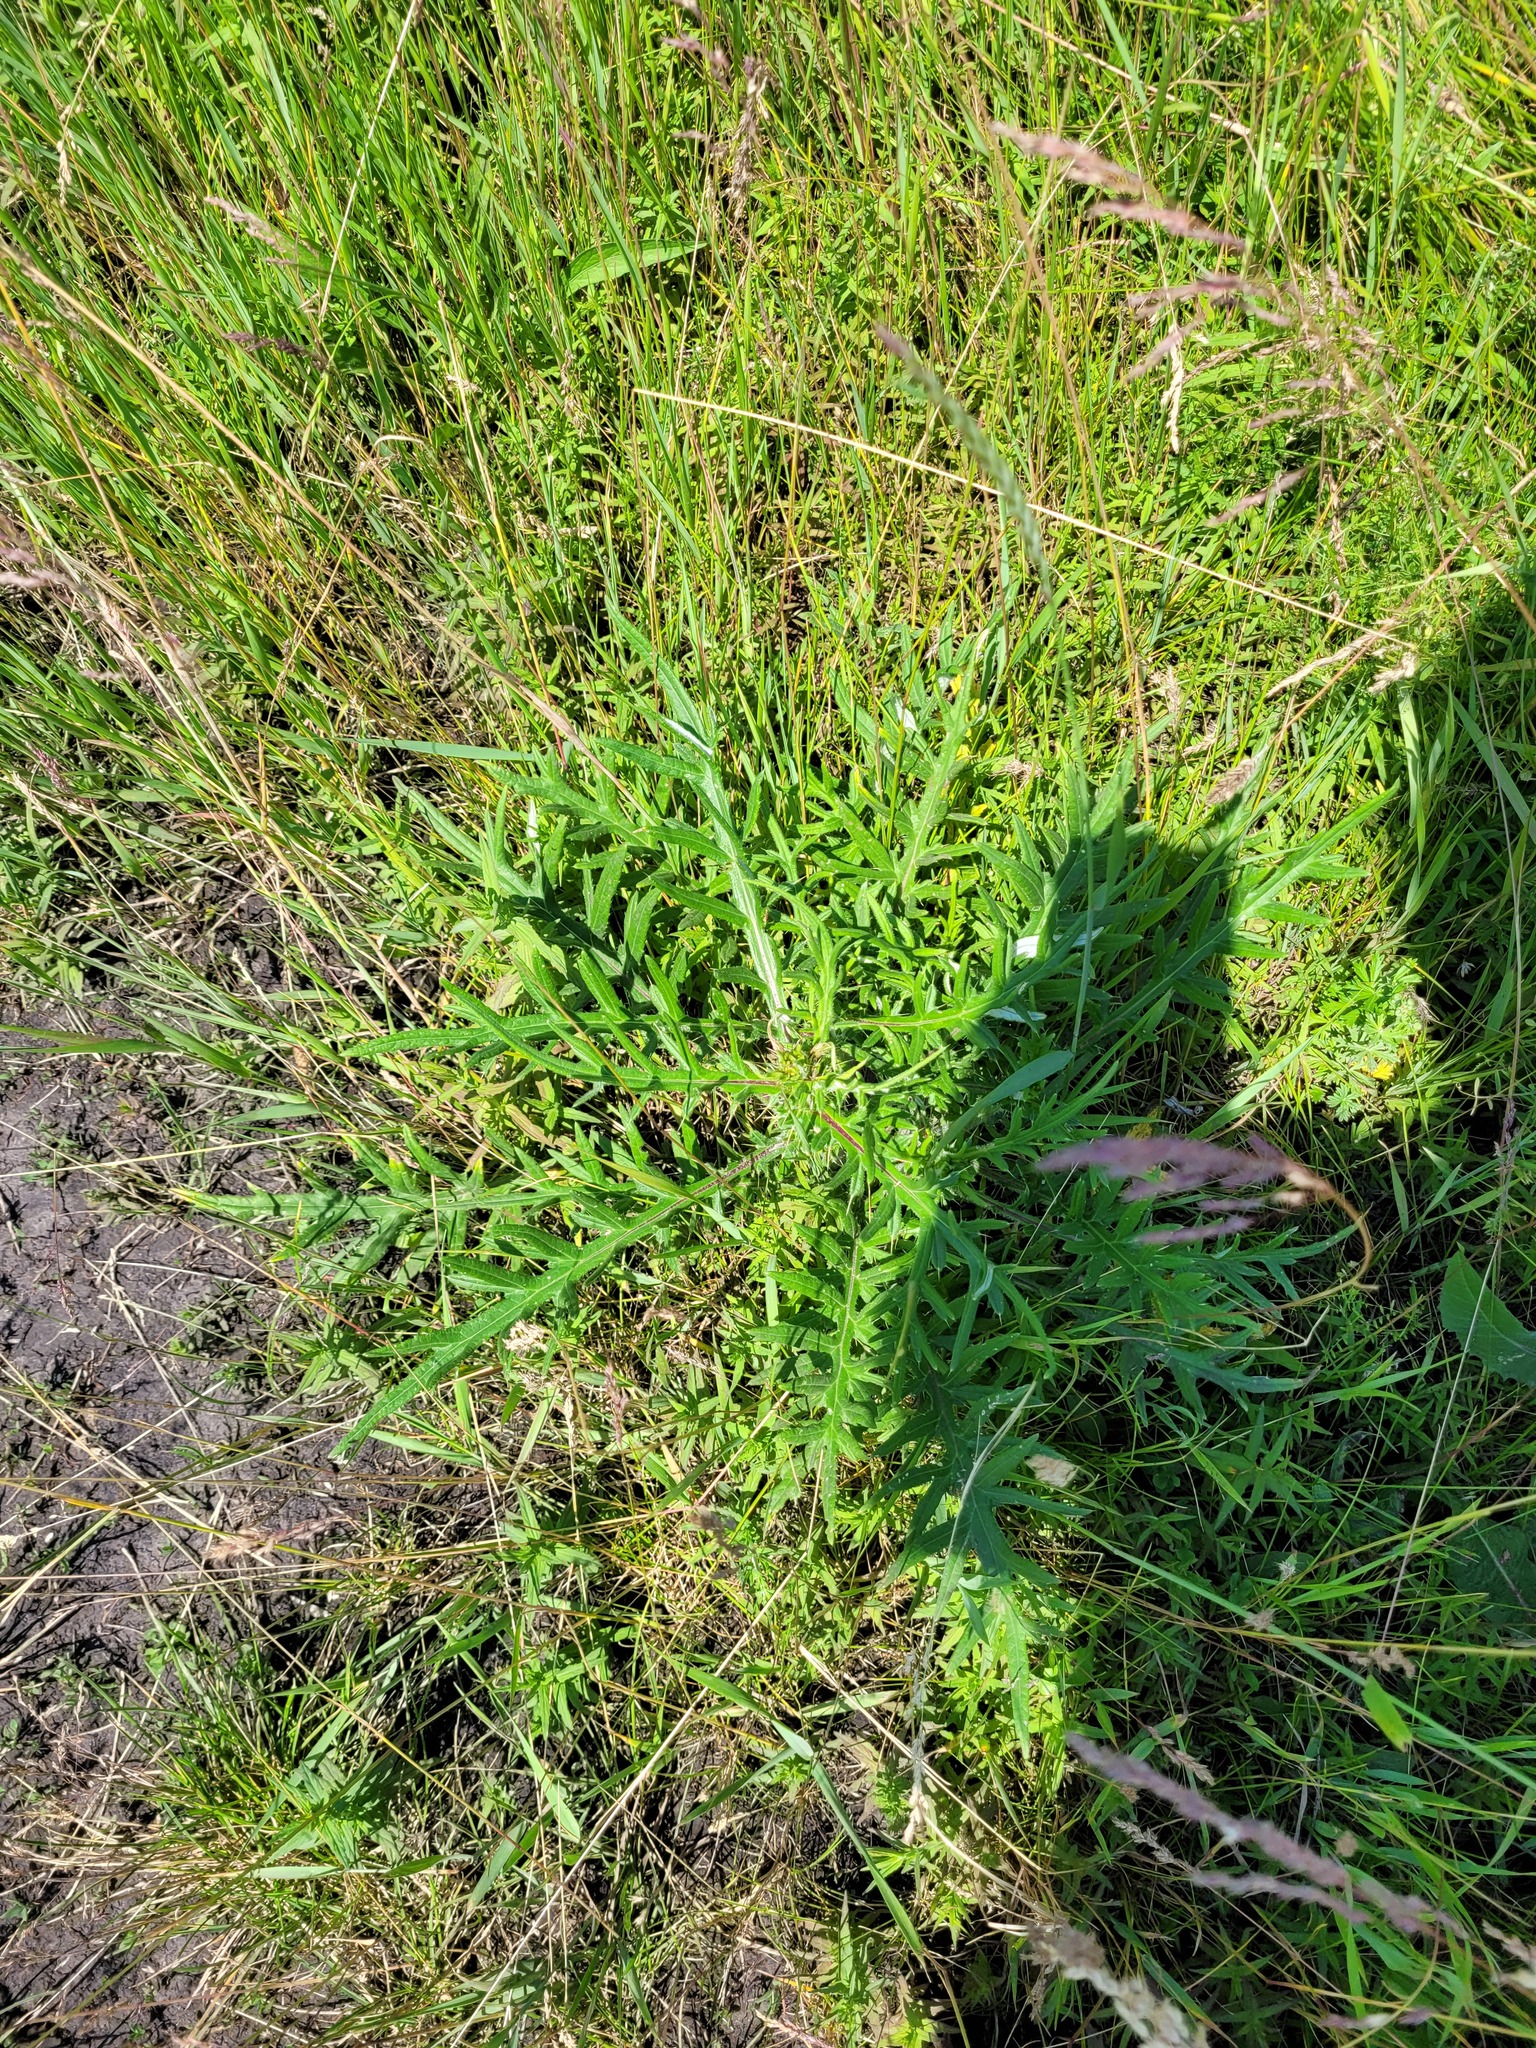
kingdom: Plantae
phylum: Tracheophyta
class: Magnoliopsida
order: Asterales
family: Asteraceae
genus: Cirsium
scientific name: Cirsium serrulatum
